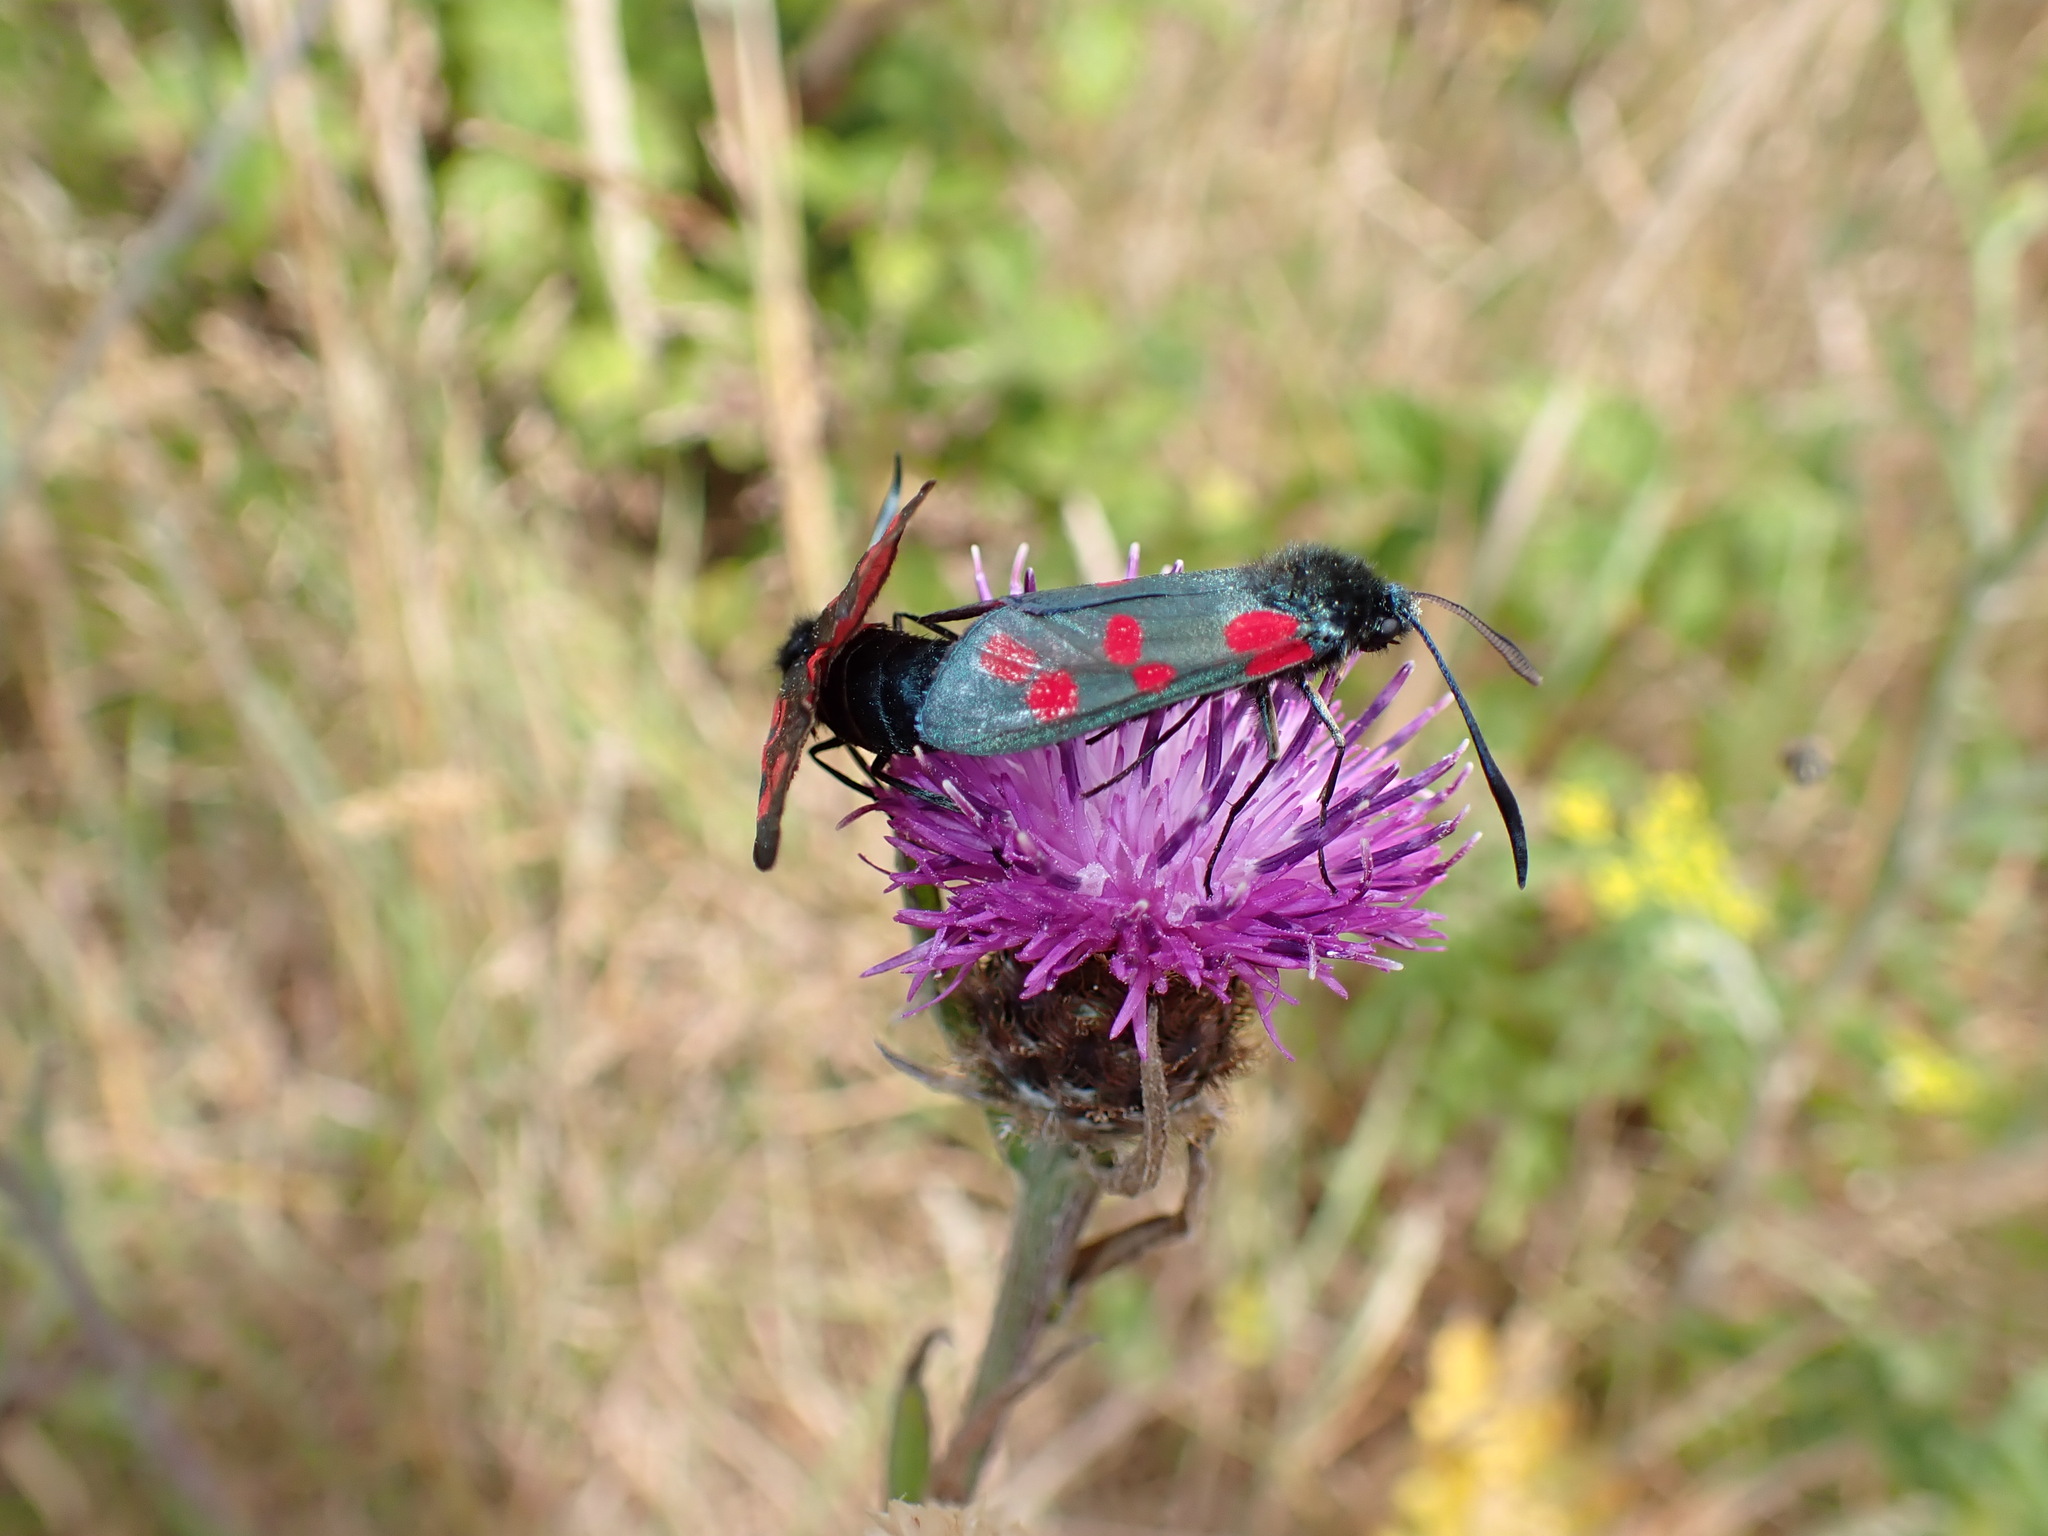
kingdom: Animalia
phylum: Arthropoda
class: Insecta
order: Lepidoptera
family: Zygaenidae
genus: Zygaena
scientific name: Zygaena filipendulae
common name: Six-spot burnet
